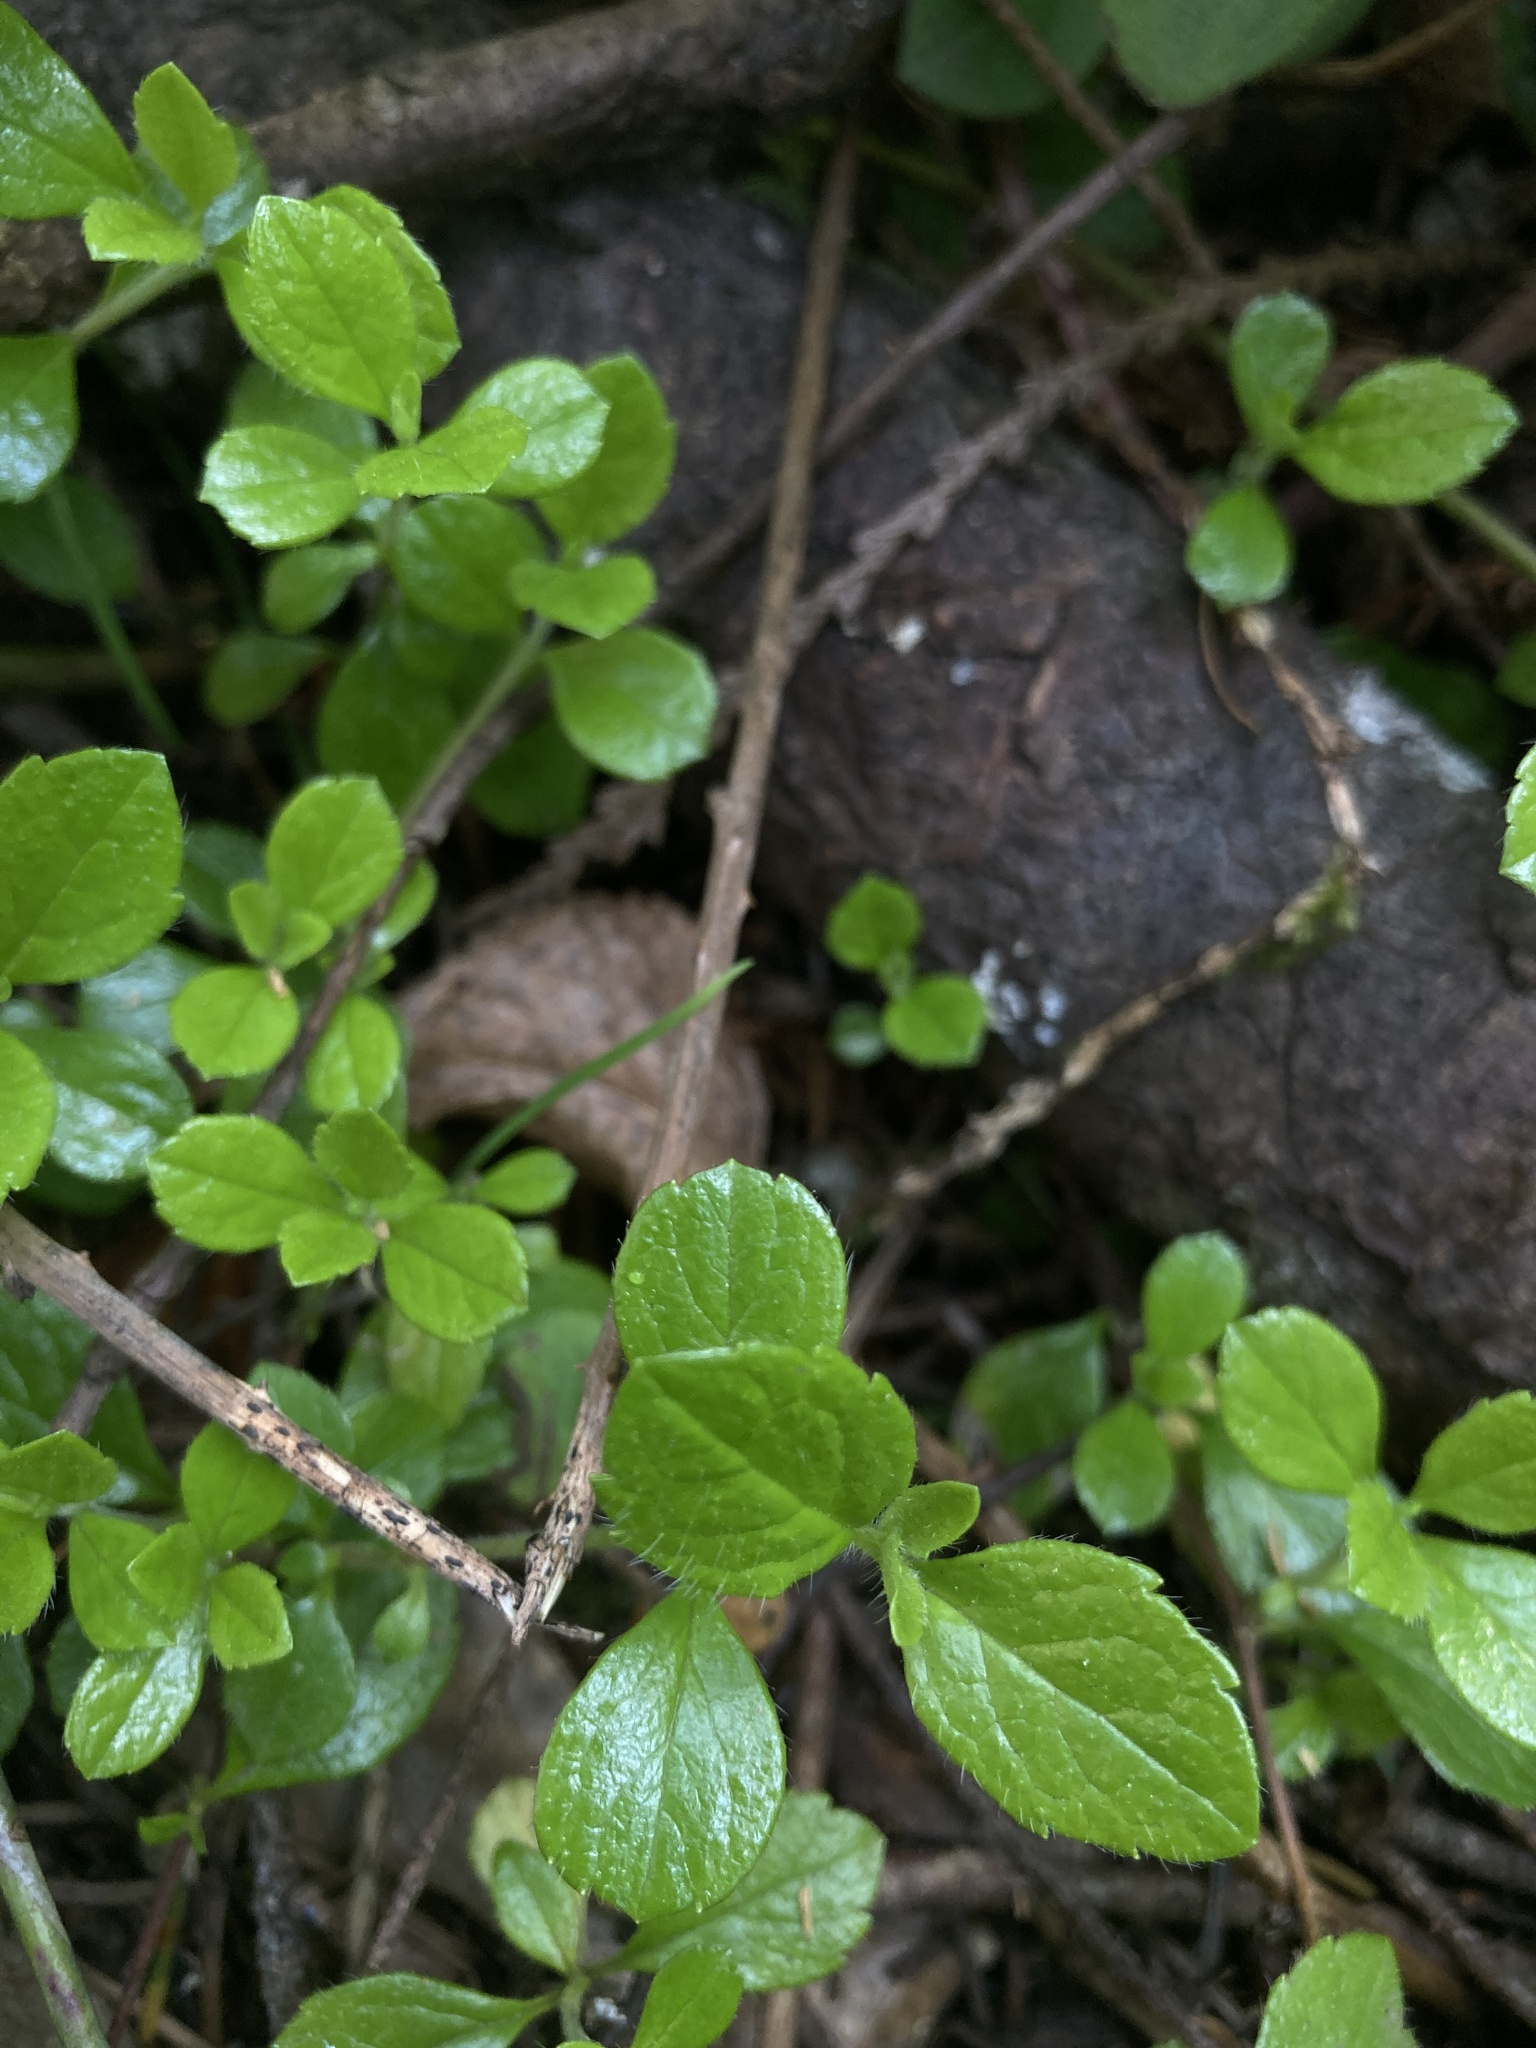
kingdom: Plantae
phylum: Tracheophyta
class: Magnoliopsida
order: Dipsacales
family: Caprifoliaceae
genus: Linnaea
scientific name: Linnaea borealis
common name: Twinflower
